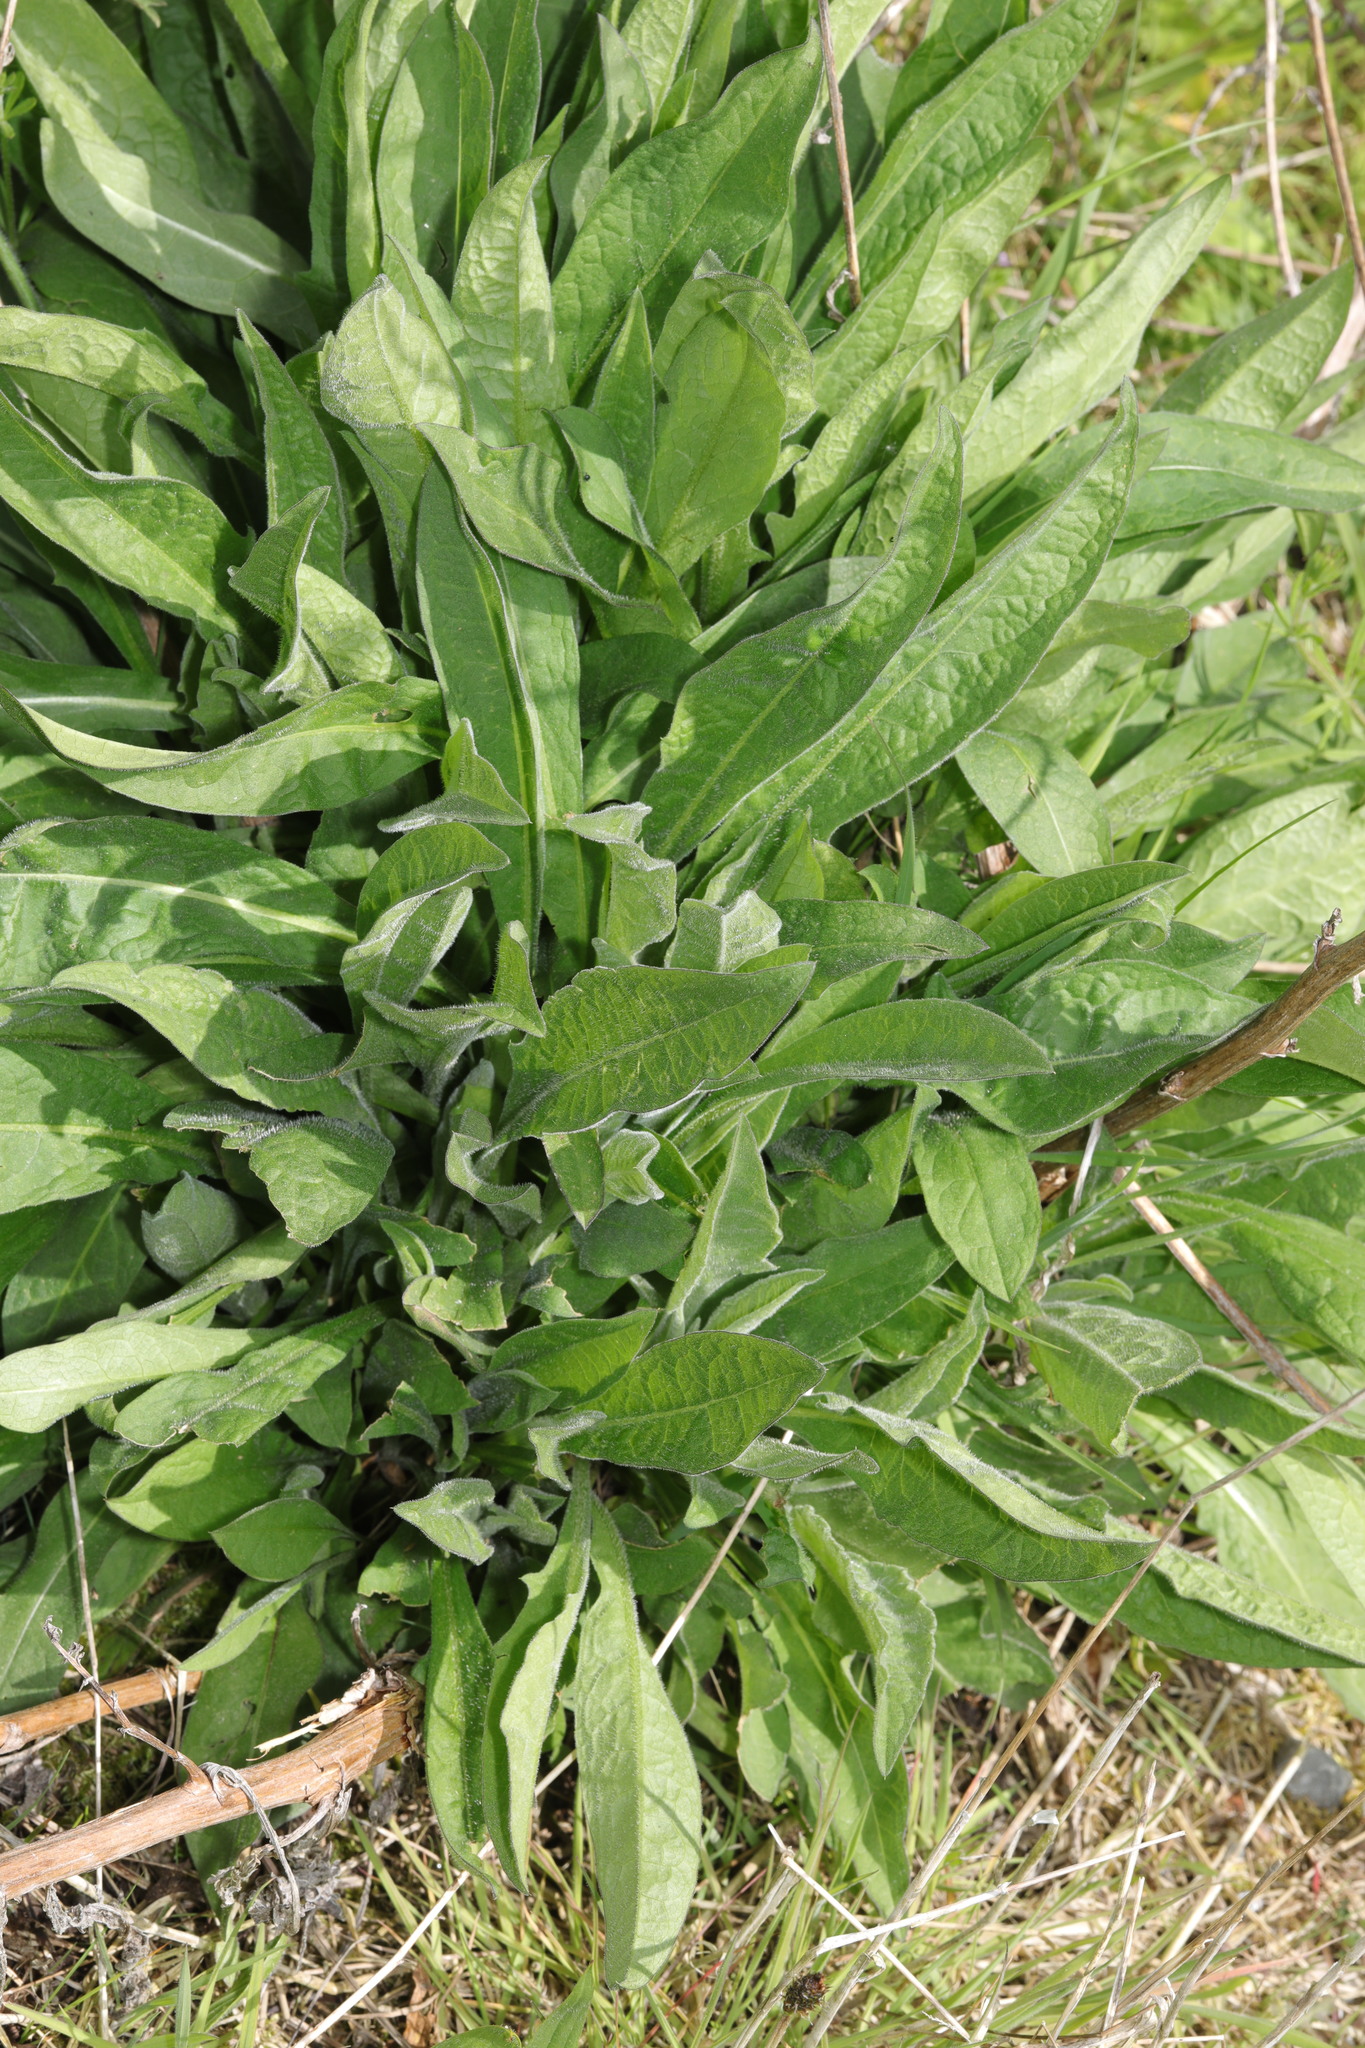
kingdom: Plantae
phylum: Tracheophyta
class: Magnoliopsida
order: Asterales
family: Asteraceae
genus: Centaurea
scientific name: Centaurea nigra
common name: Lesser knapweed
